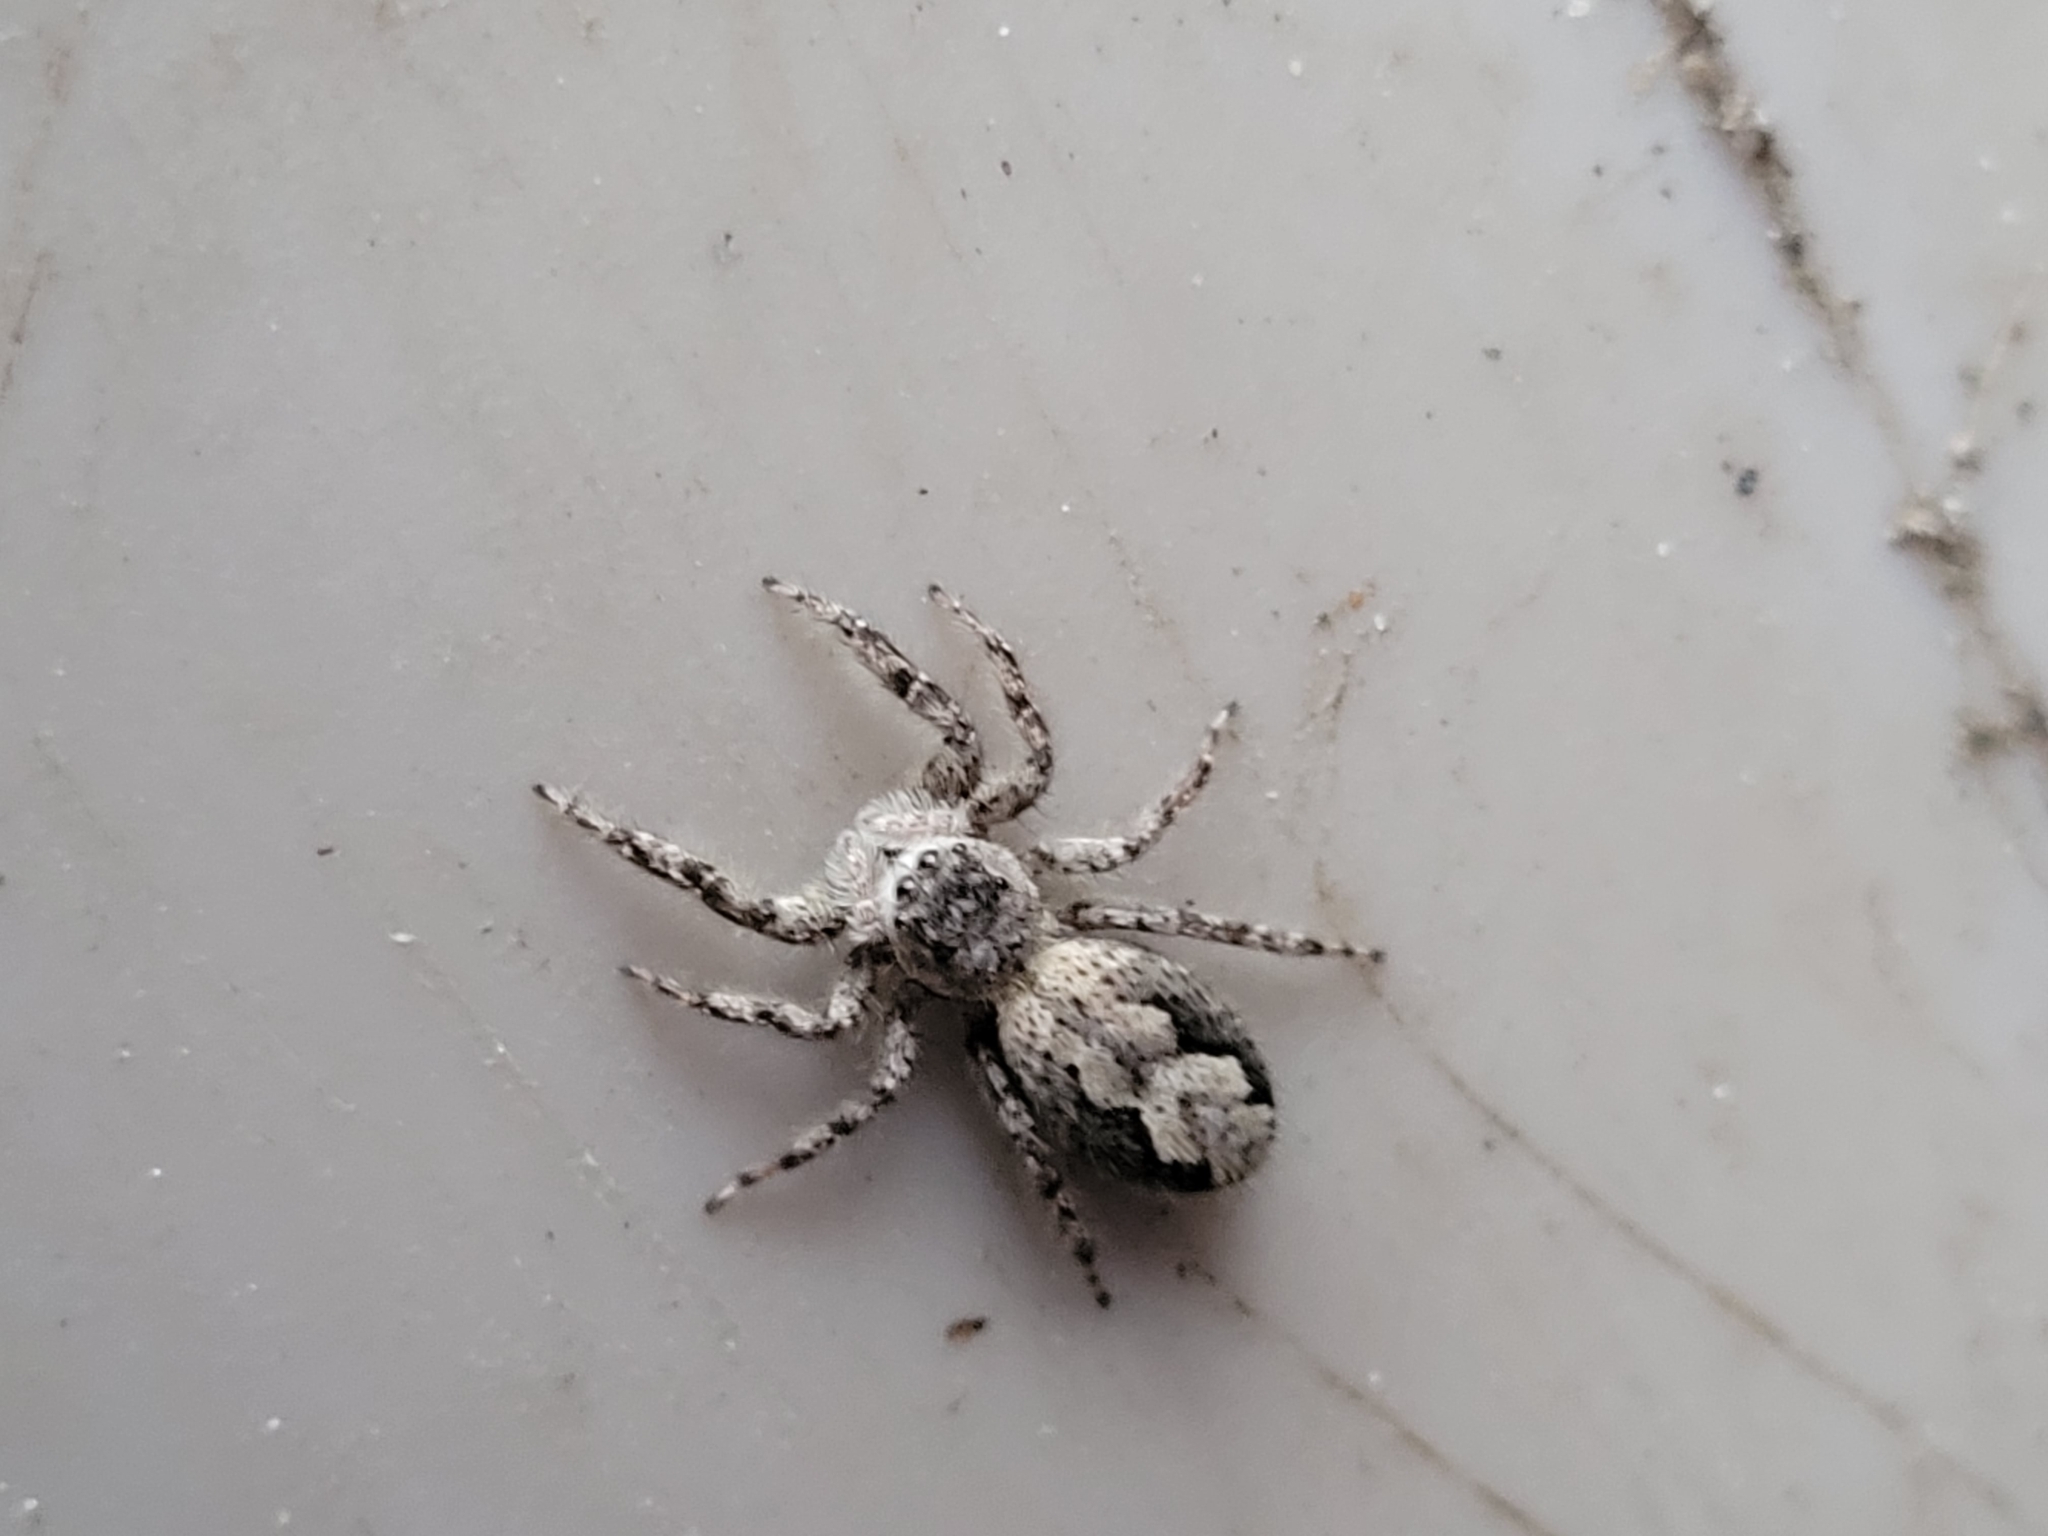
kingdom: Animalia
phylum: Arthropoda
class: Arachnida
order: Araneae
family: Salticidae
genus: Platycryptus
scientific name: Platycryptus undatus
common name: Tan jumping spider
